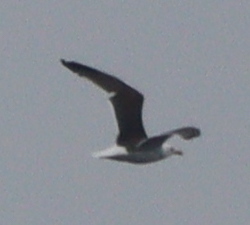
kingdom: Animalia
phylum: Chordata
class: Aves
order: Charadriiformes
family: Laridae
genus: Larus
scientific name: Larus marinus
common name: Great black-backed gull
